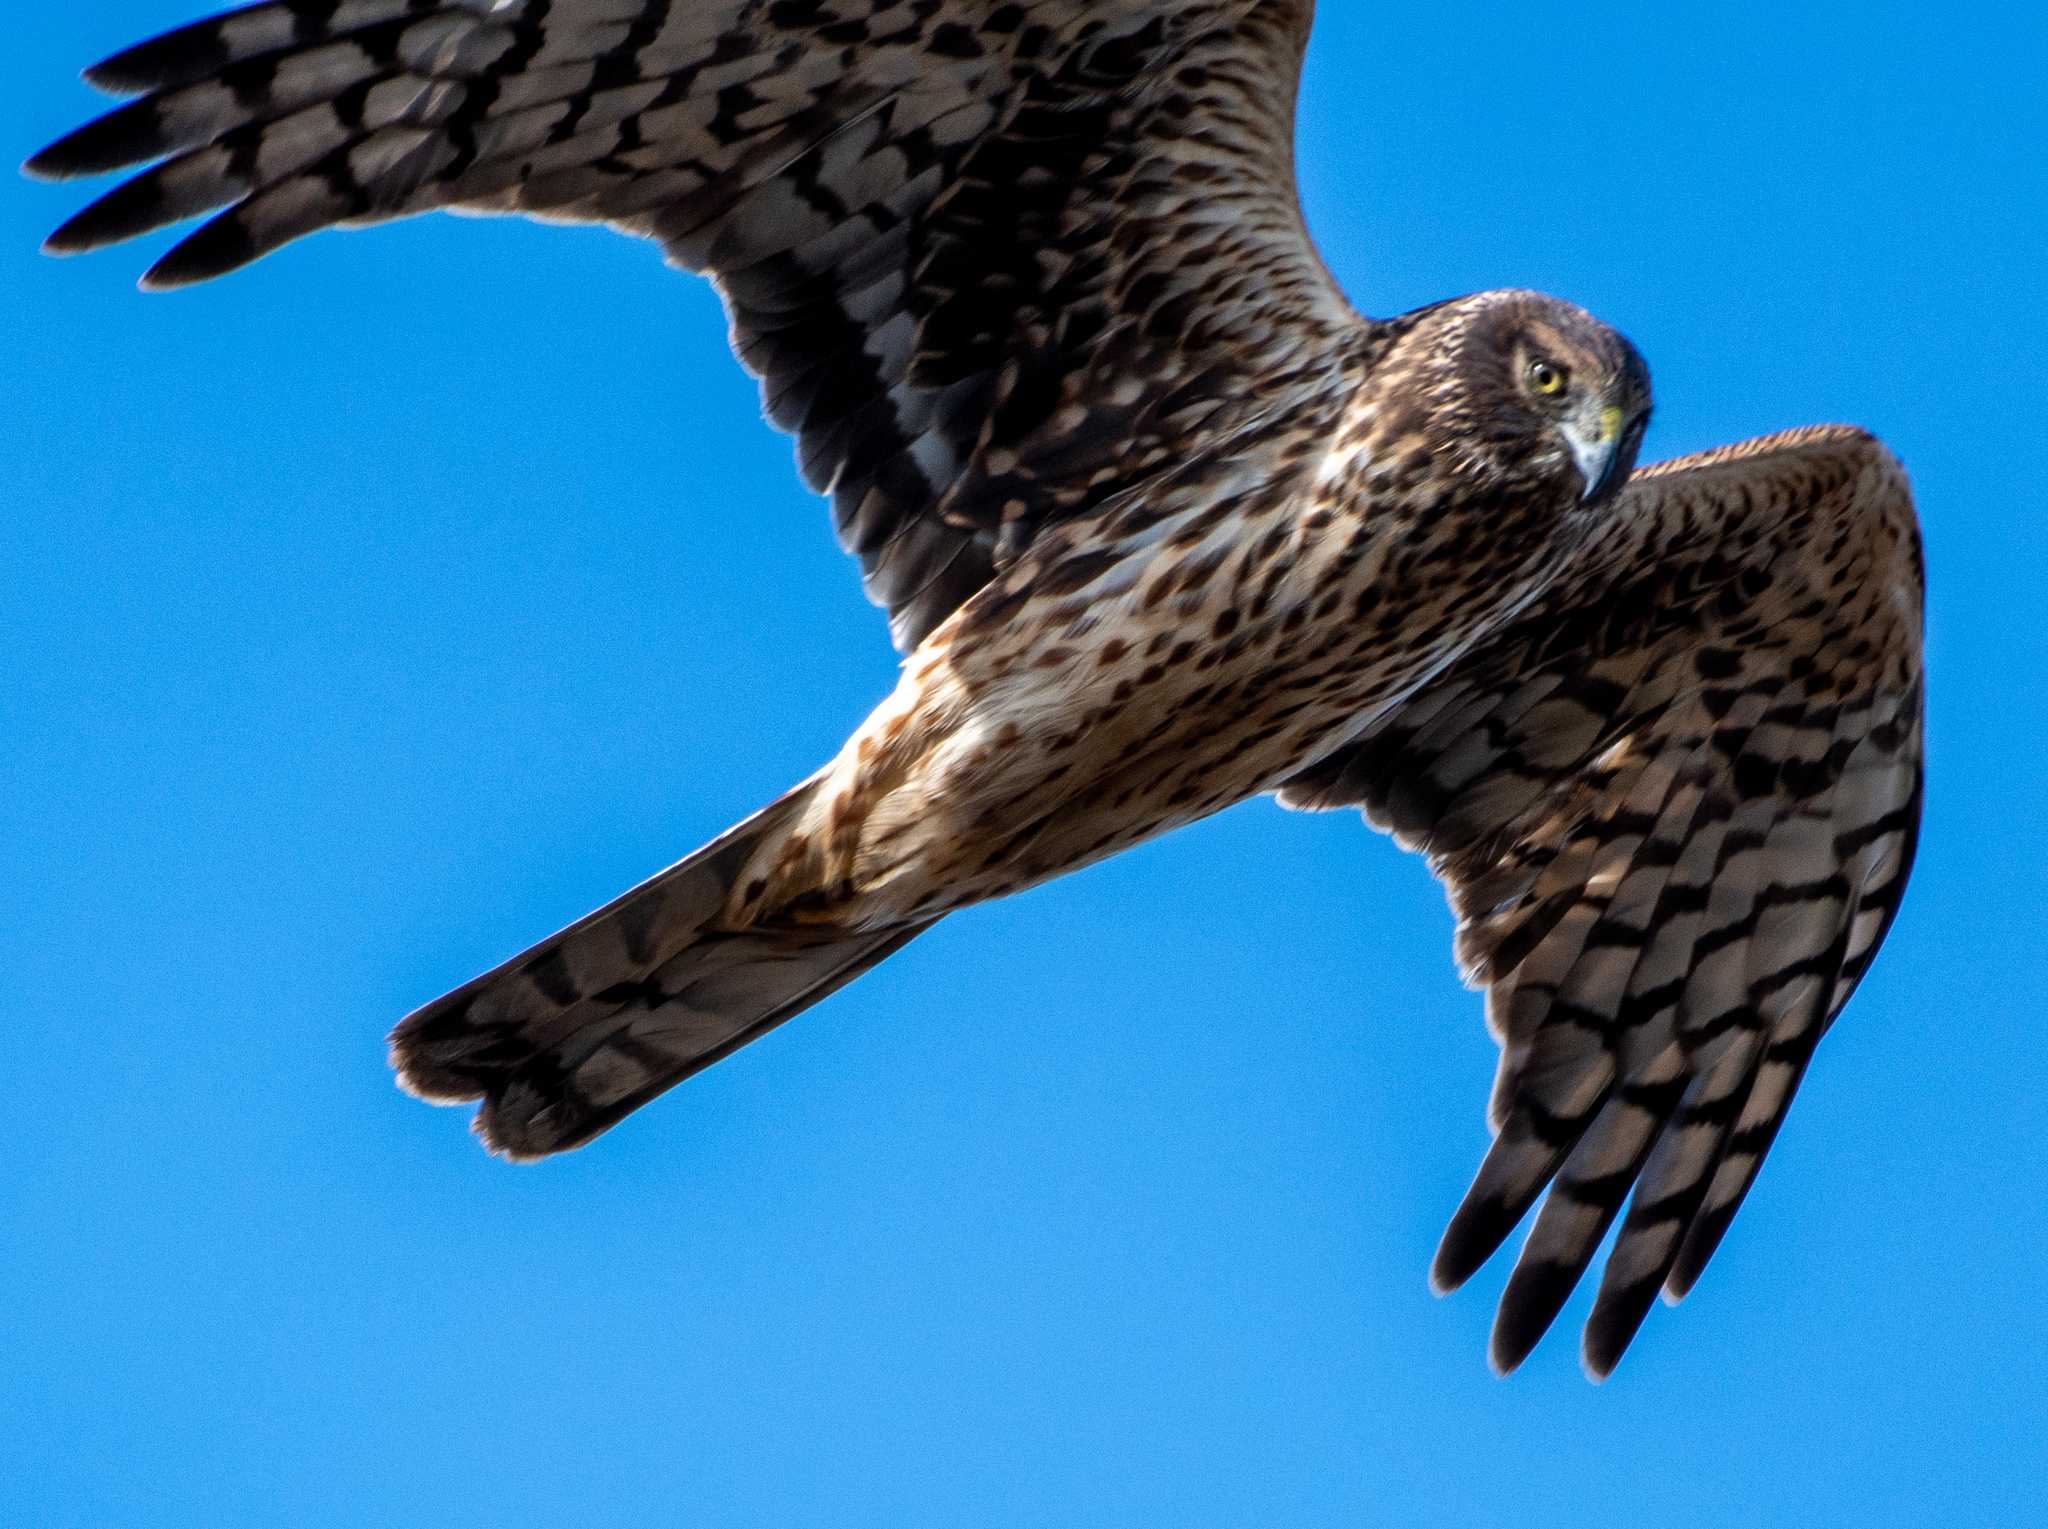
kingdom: Animalia
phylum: Chordata
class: Aves
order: Accipitriformes
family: Accipitridae
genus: Circus
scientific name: Circus cyaneus
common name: Hen harrier
